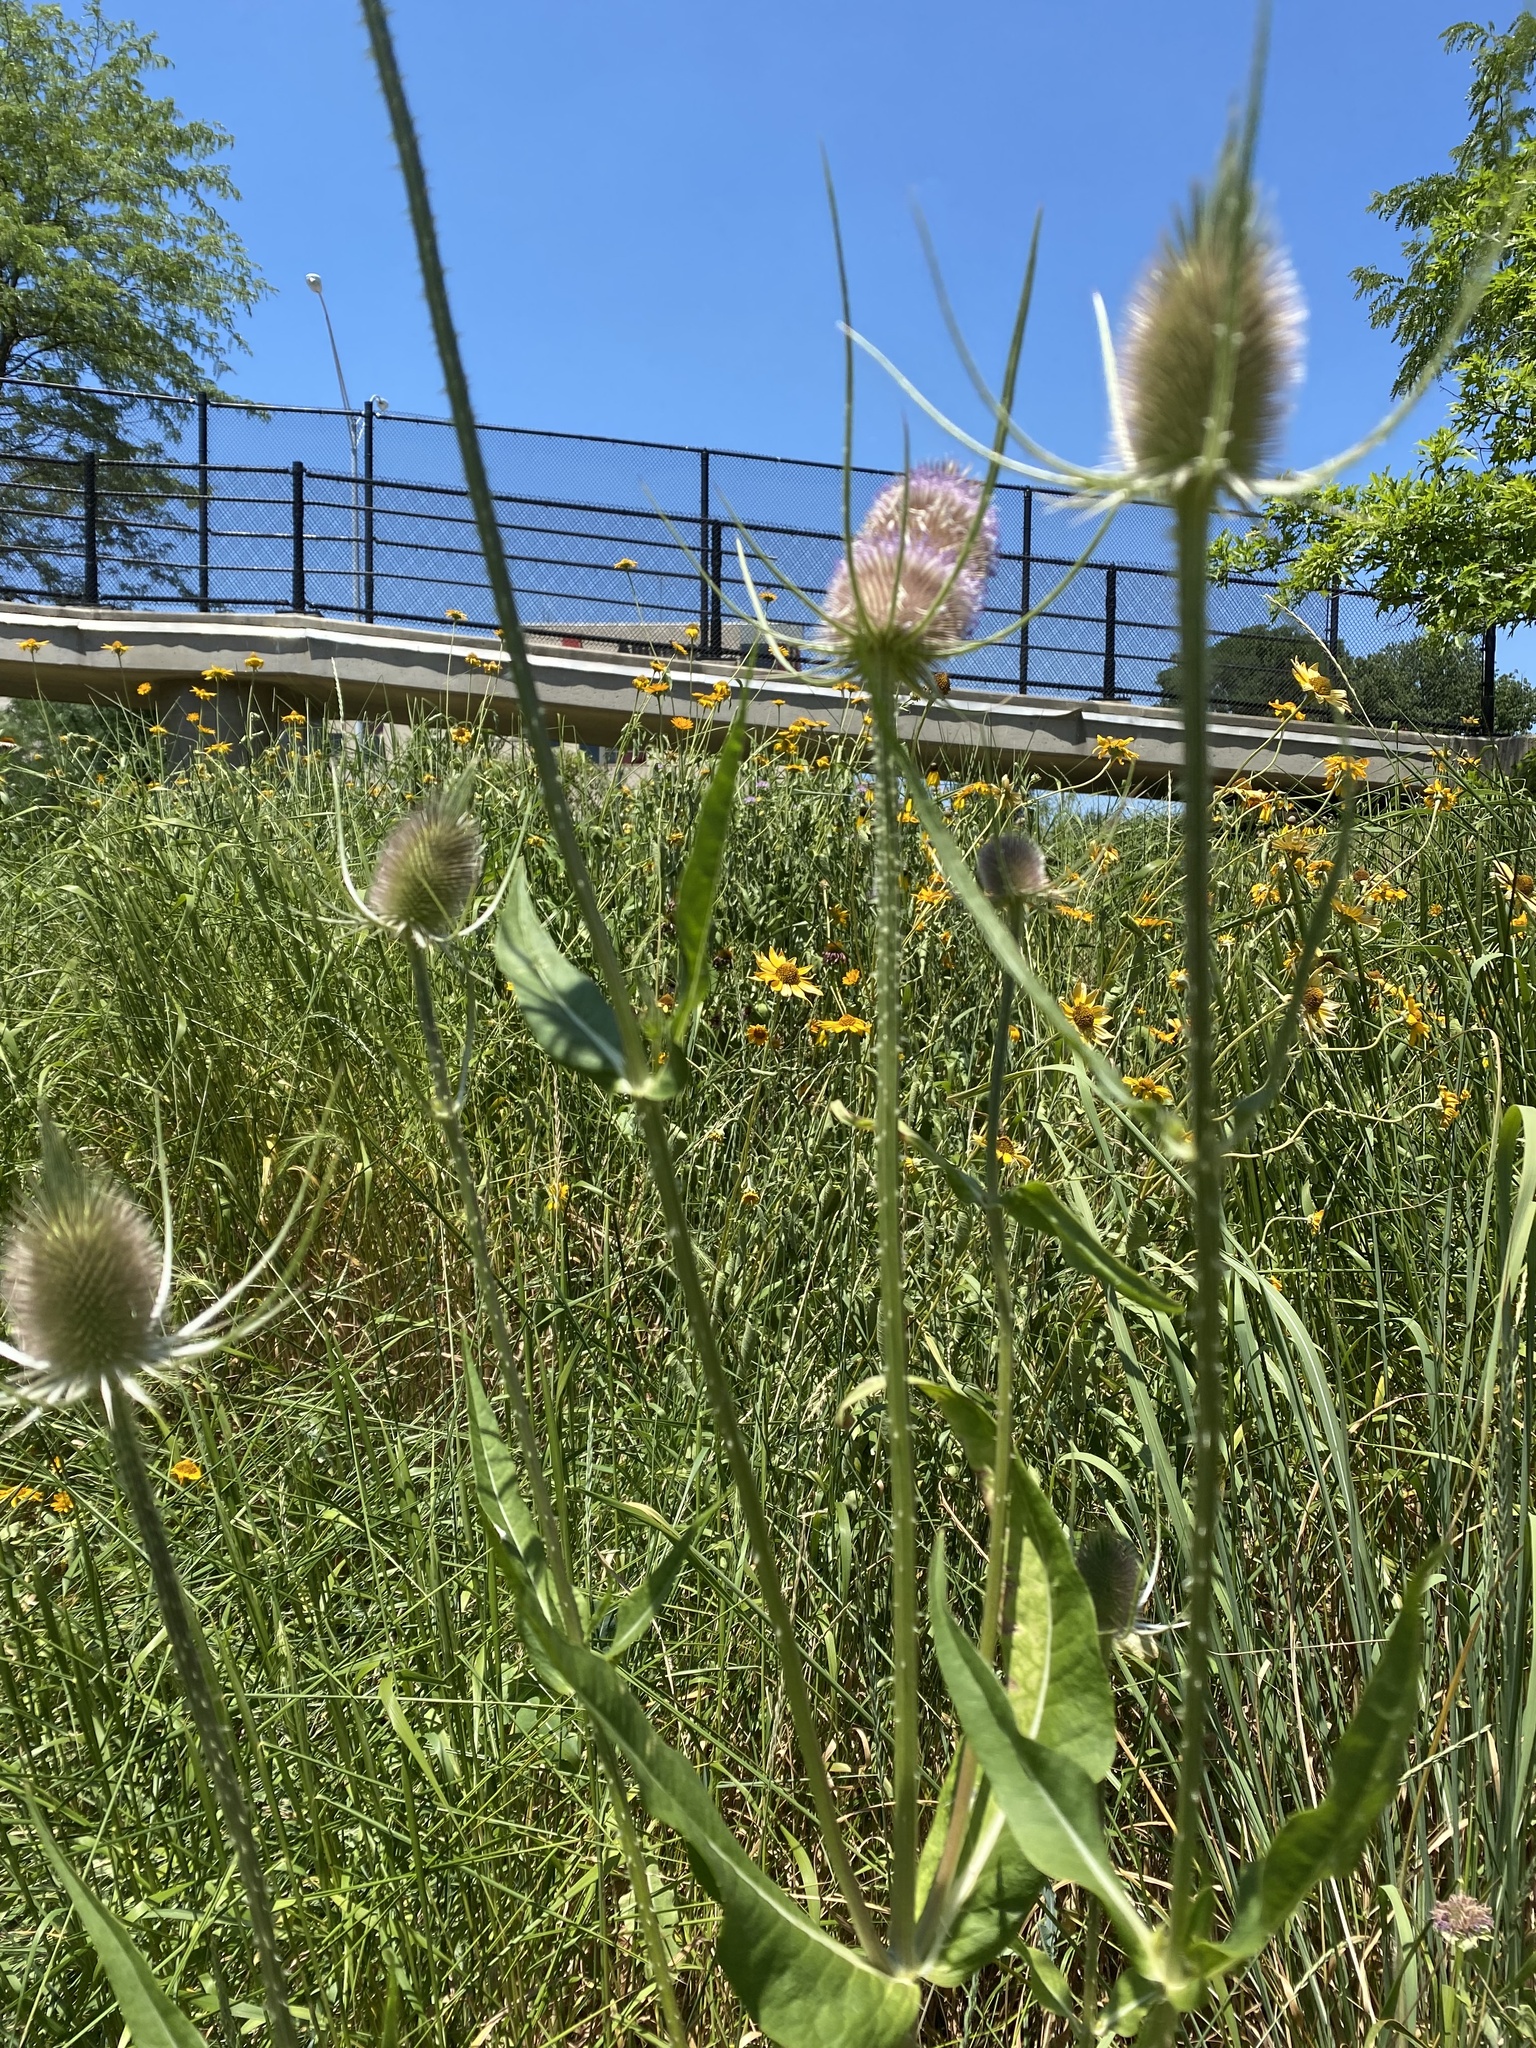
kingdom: Plantae
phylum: Tracheophyta
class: Magnoliopsida
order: Dipsacales
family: Caprifoliaceae
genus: Dipsacus
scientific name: Dipsacus fullonum
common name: Teasel
